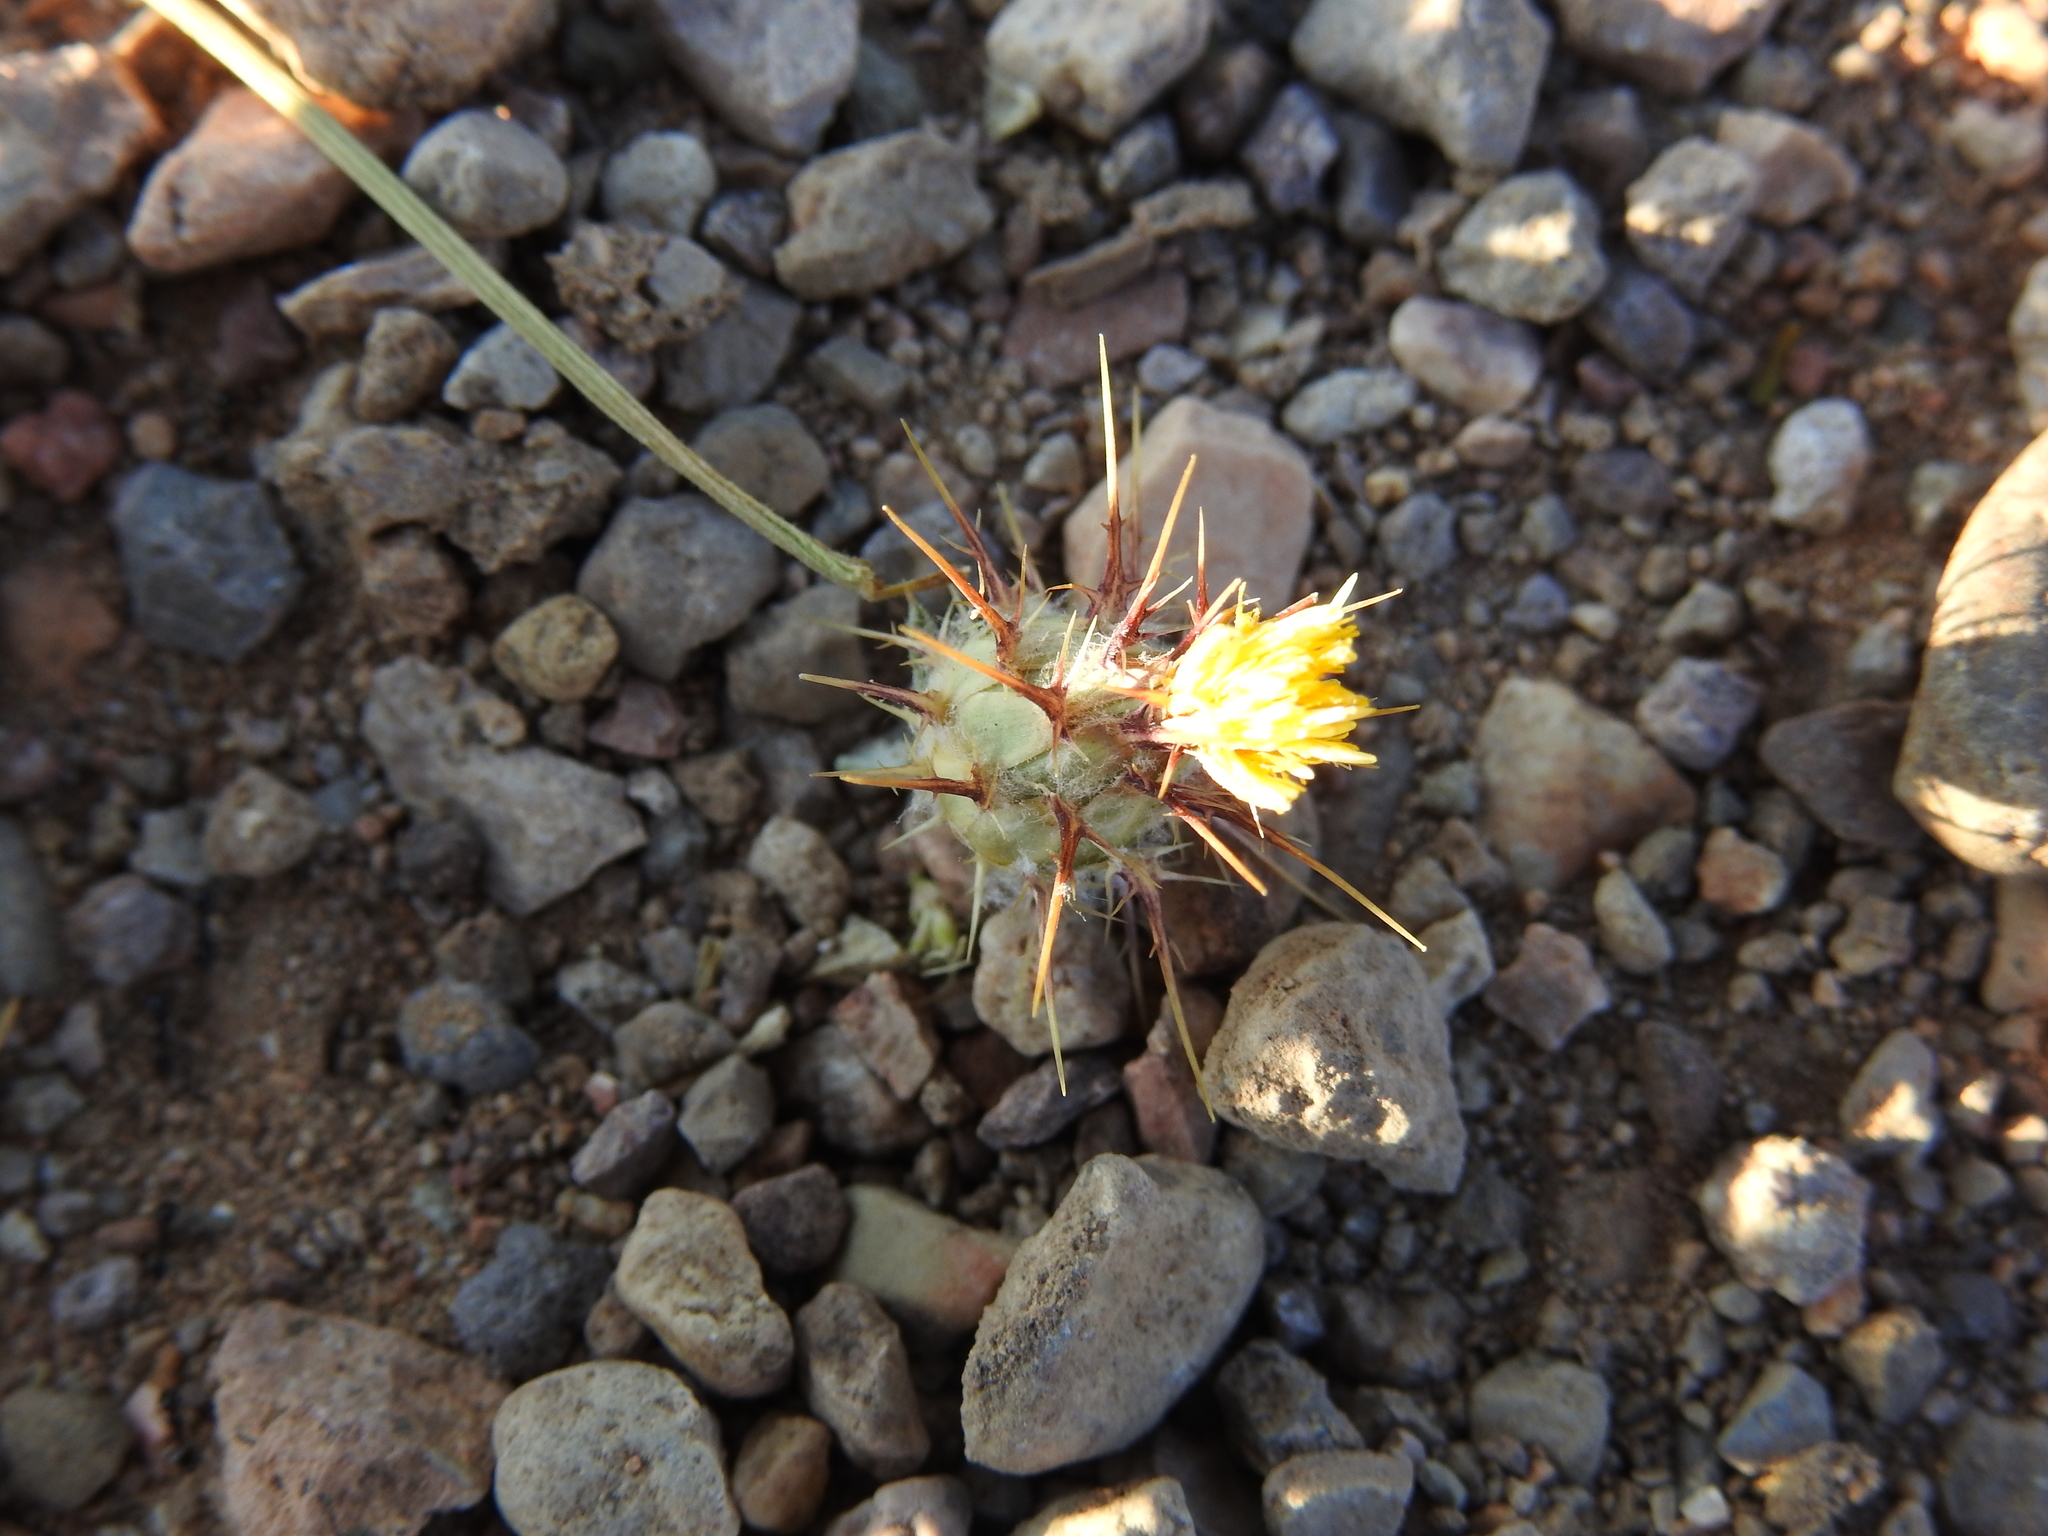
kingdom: Plantae
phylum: Tracheophyta
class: Magnoliopsida
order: Asterales
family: Asteraceae
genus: Centaurea
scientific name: Centaurea melitensis
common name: Maltese star-thistle
